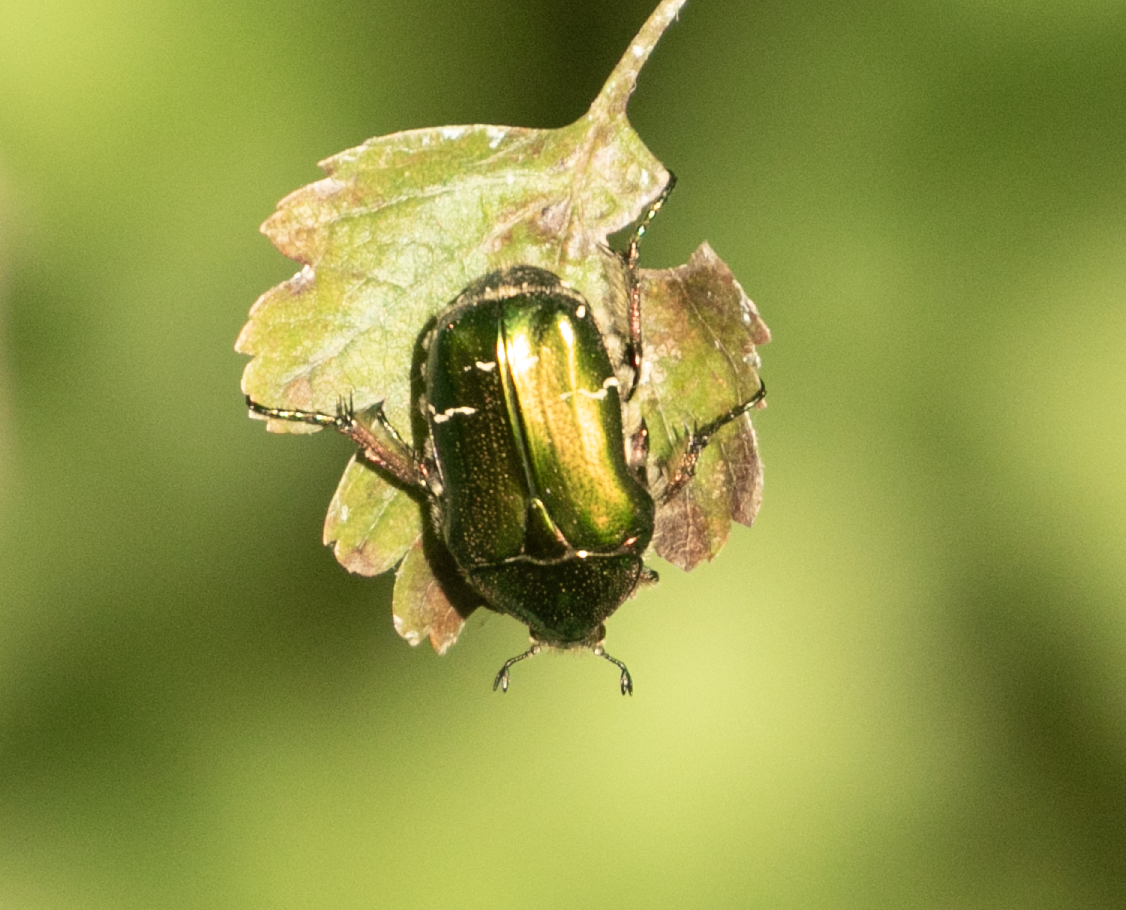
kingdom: Animalia
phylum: Arthropoda
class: Insecta
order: Coleoptera
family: Scarabaeidae
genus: Cetonia
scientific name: Cetonia aurata
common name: Rose chafer
